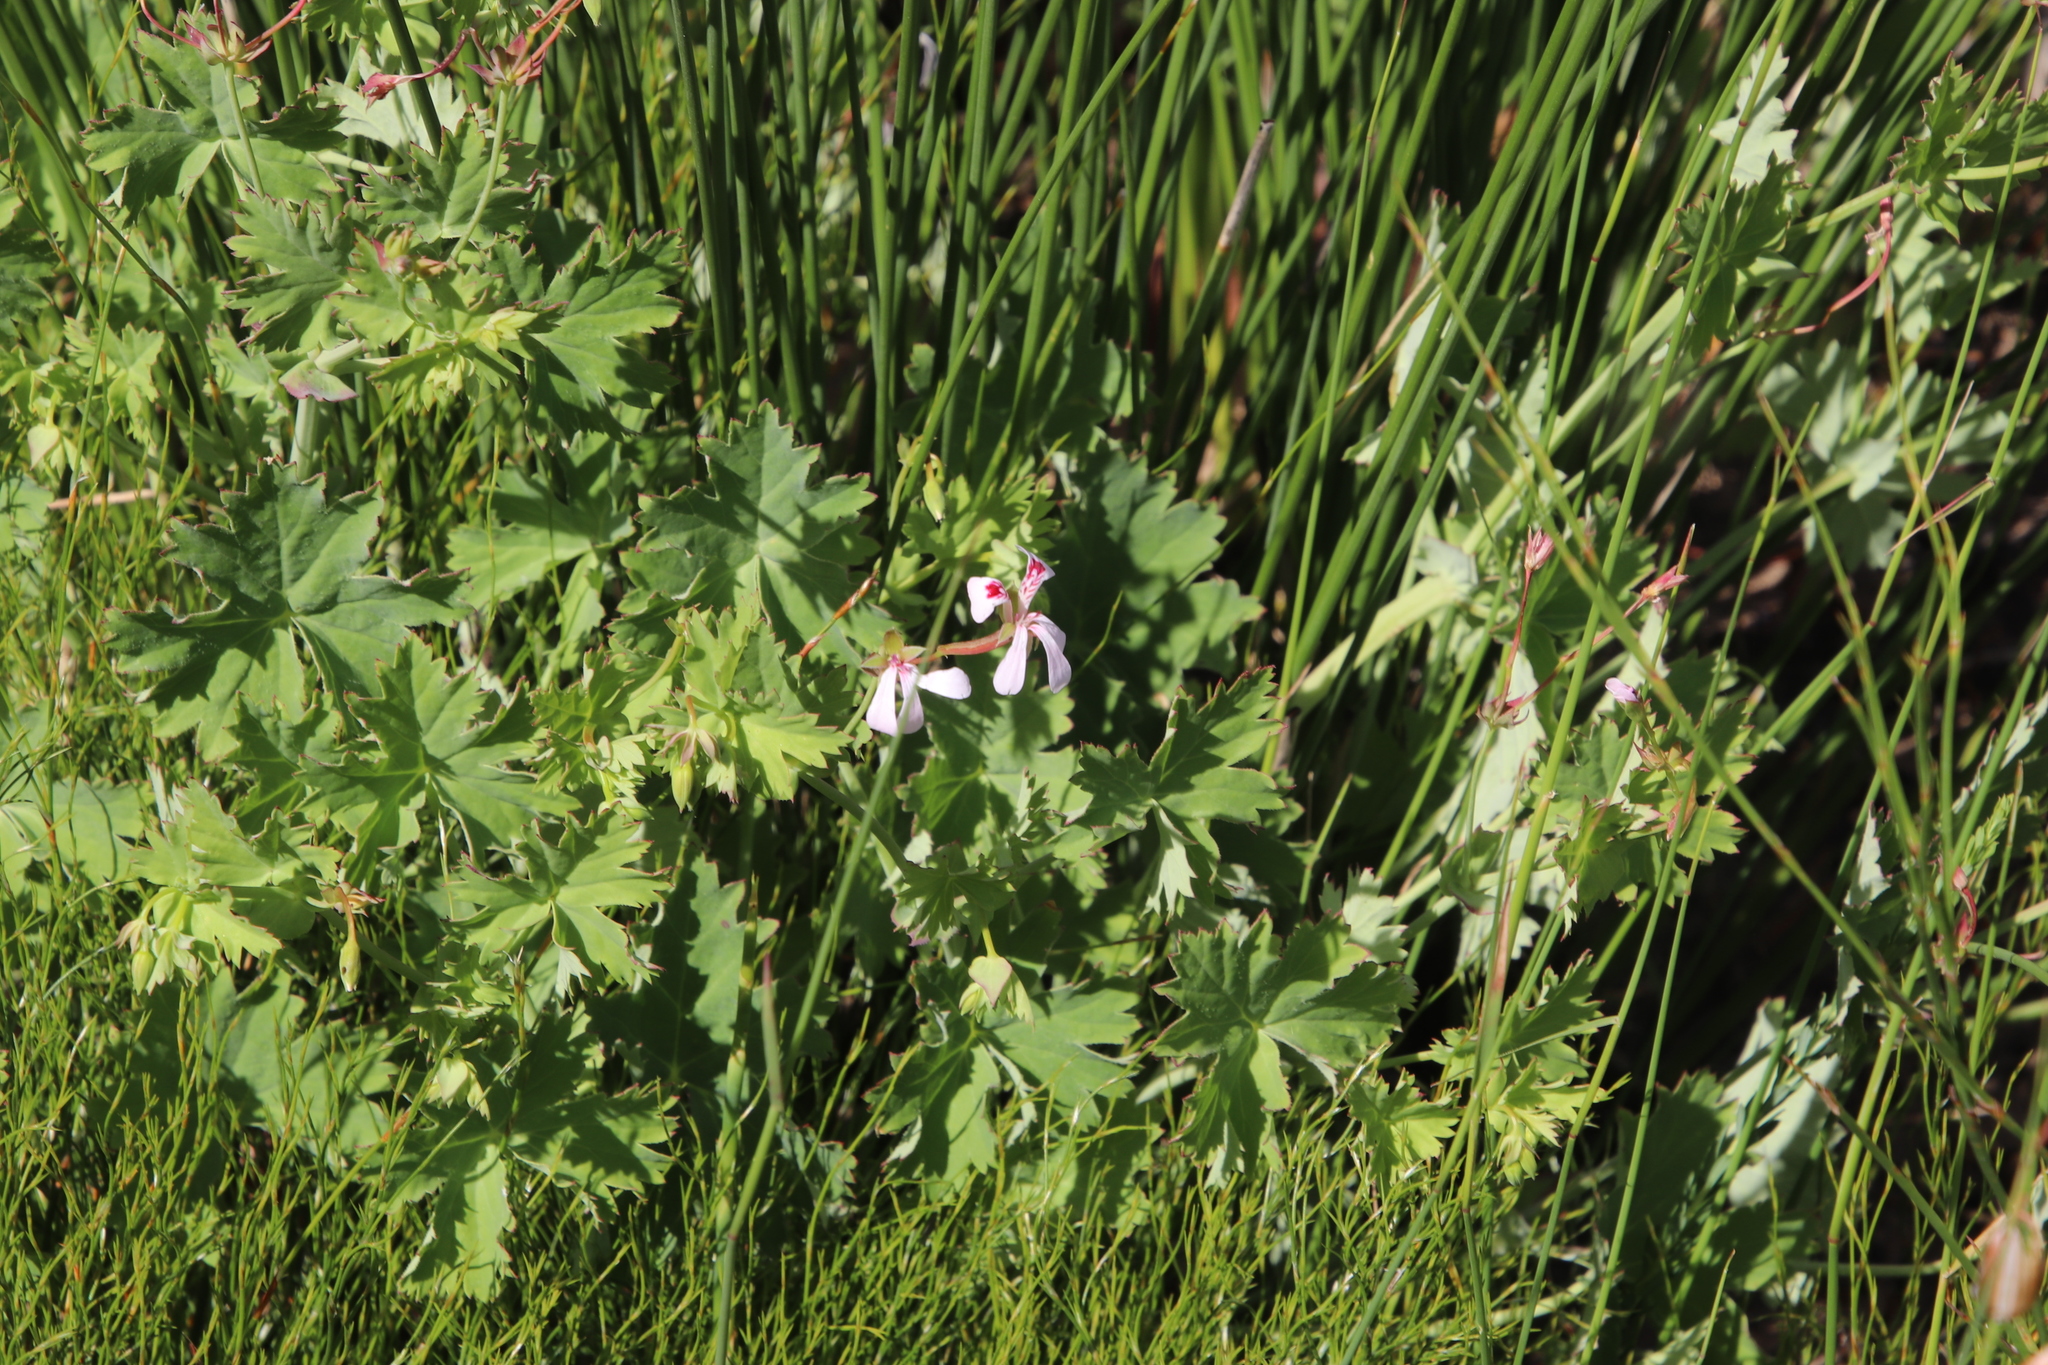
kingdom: Plantae
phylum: Tracheophyta
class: Magnoliopsida
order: Geraniales
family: Geraniaceae
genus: Pelargonium
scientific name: Pelargonium patulum
